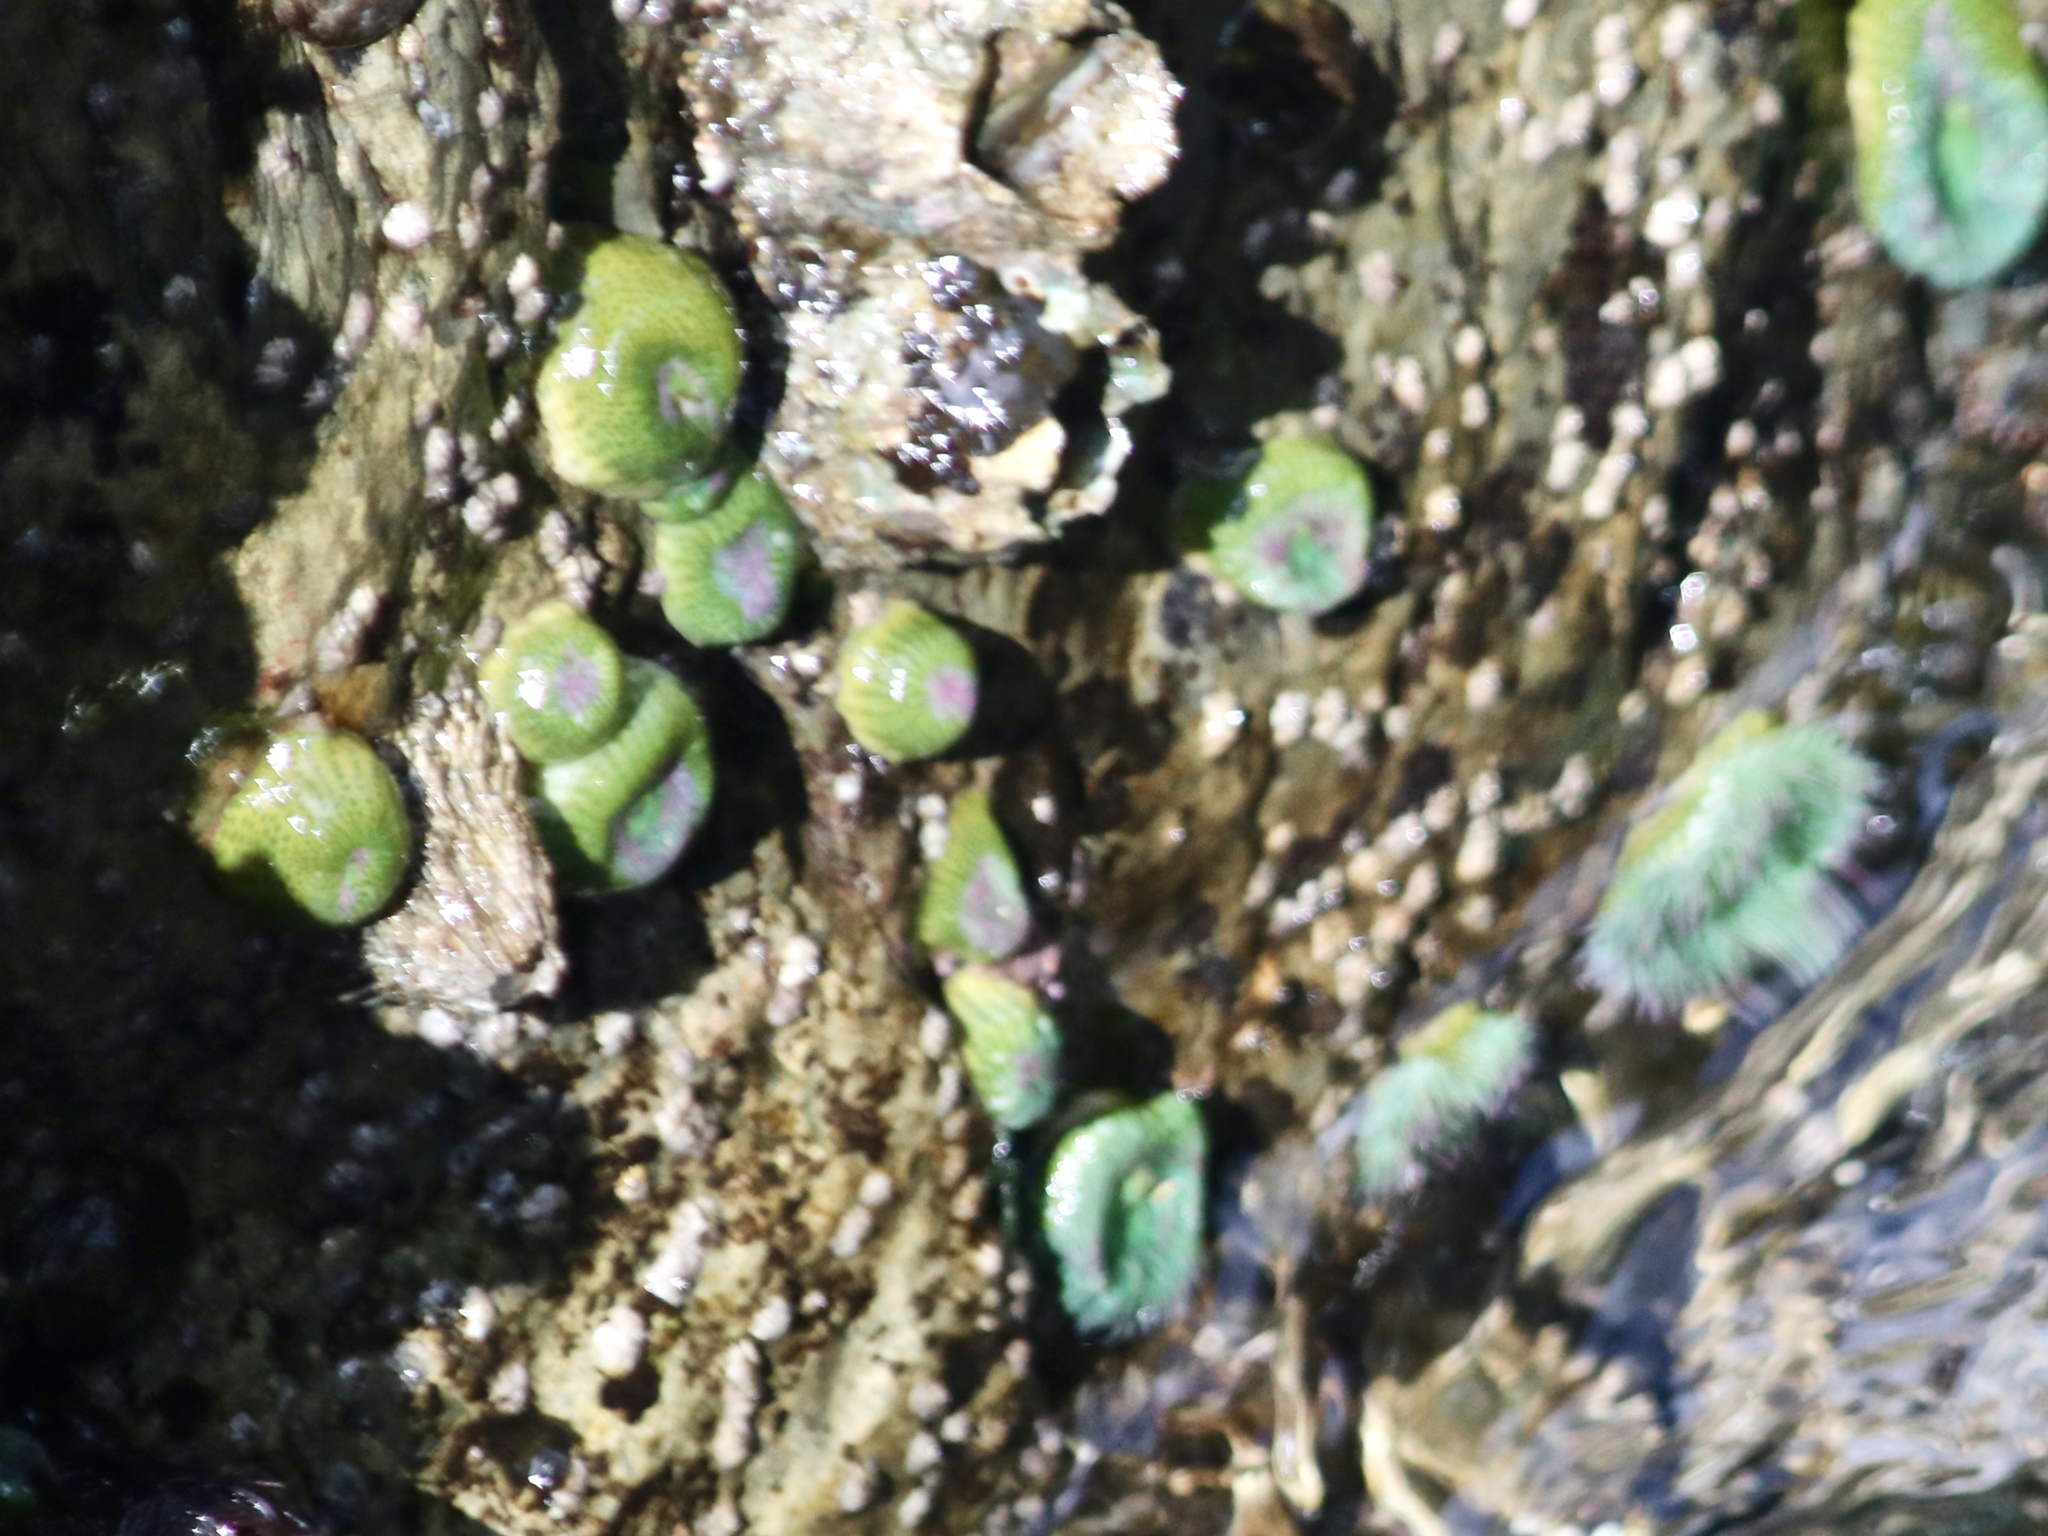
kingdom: Animalia
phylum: Cnidaria
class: Anthozoa
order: Actiniaria
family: Actiniidae
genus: Anthopleura
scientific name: Anthopleura xanthogrammica
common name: Giant green anemone
